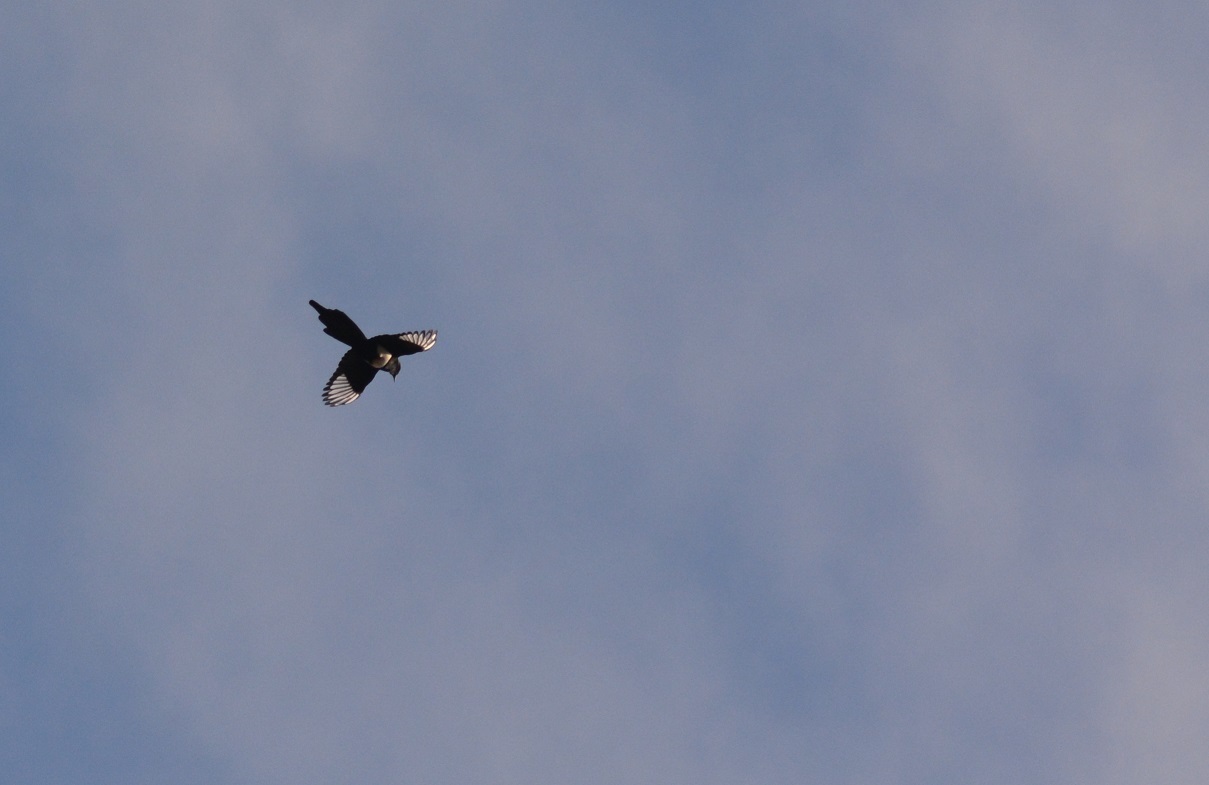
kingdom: Animalia
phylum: Chordata
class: Aves
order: Passeriformes
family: Corvidae
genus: Pica
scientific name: Pica mauritanica
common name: Maghreb magpie
